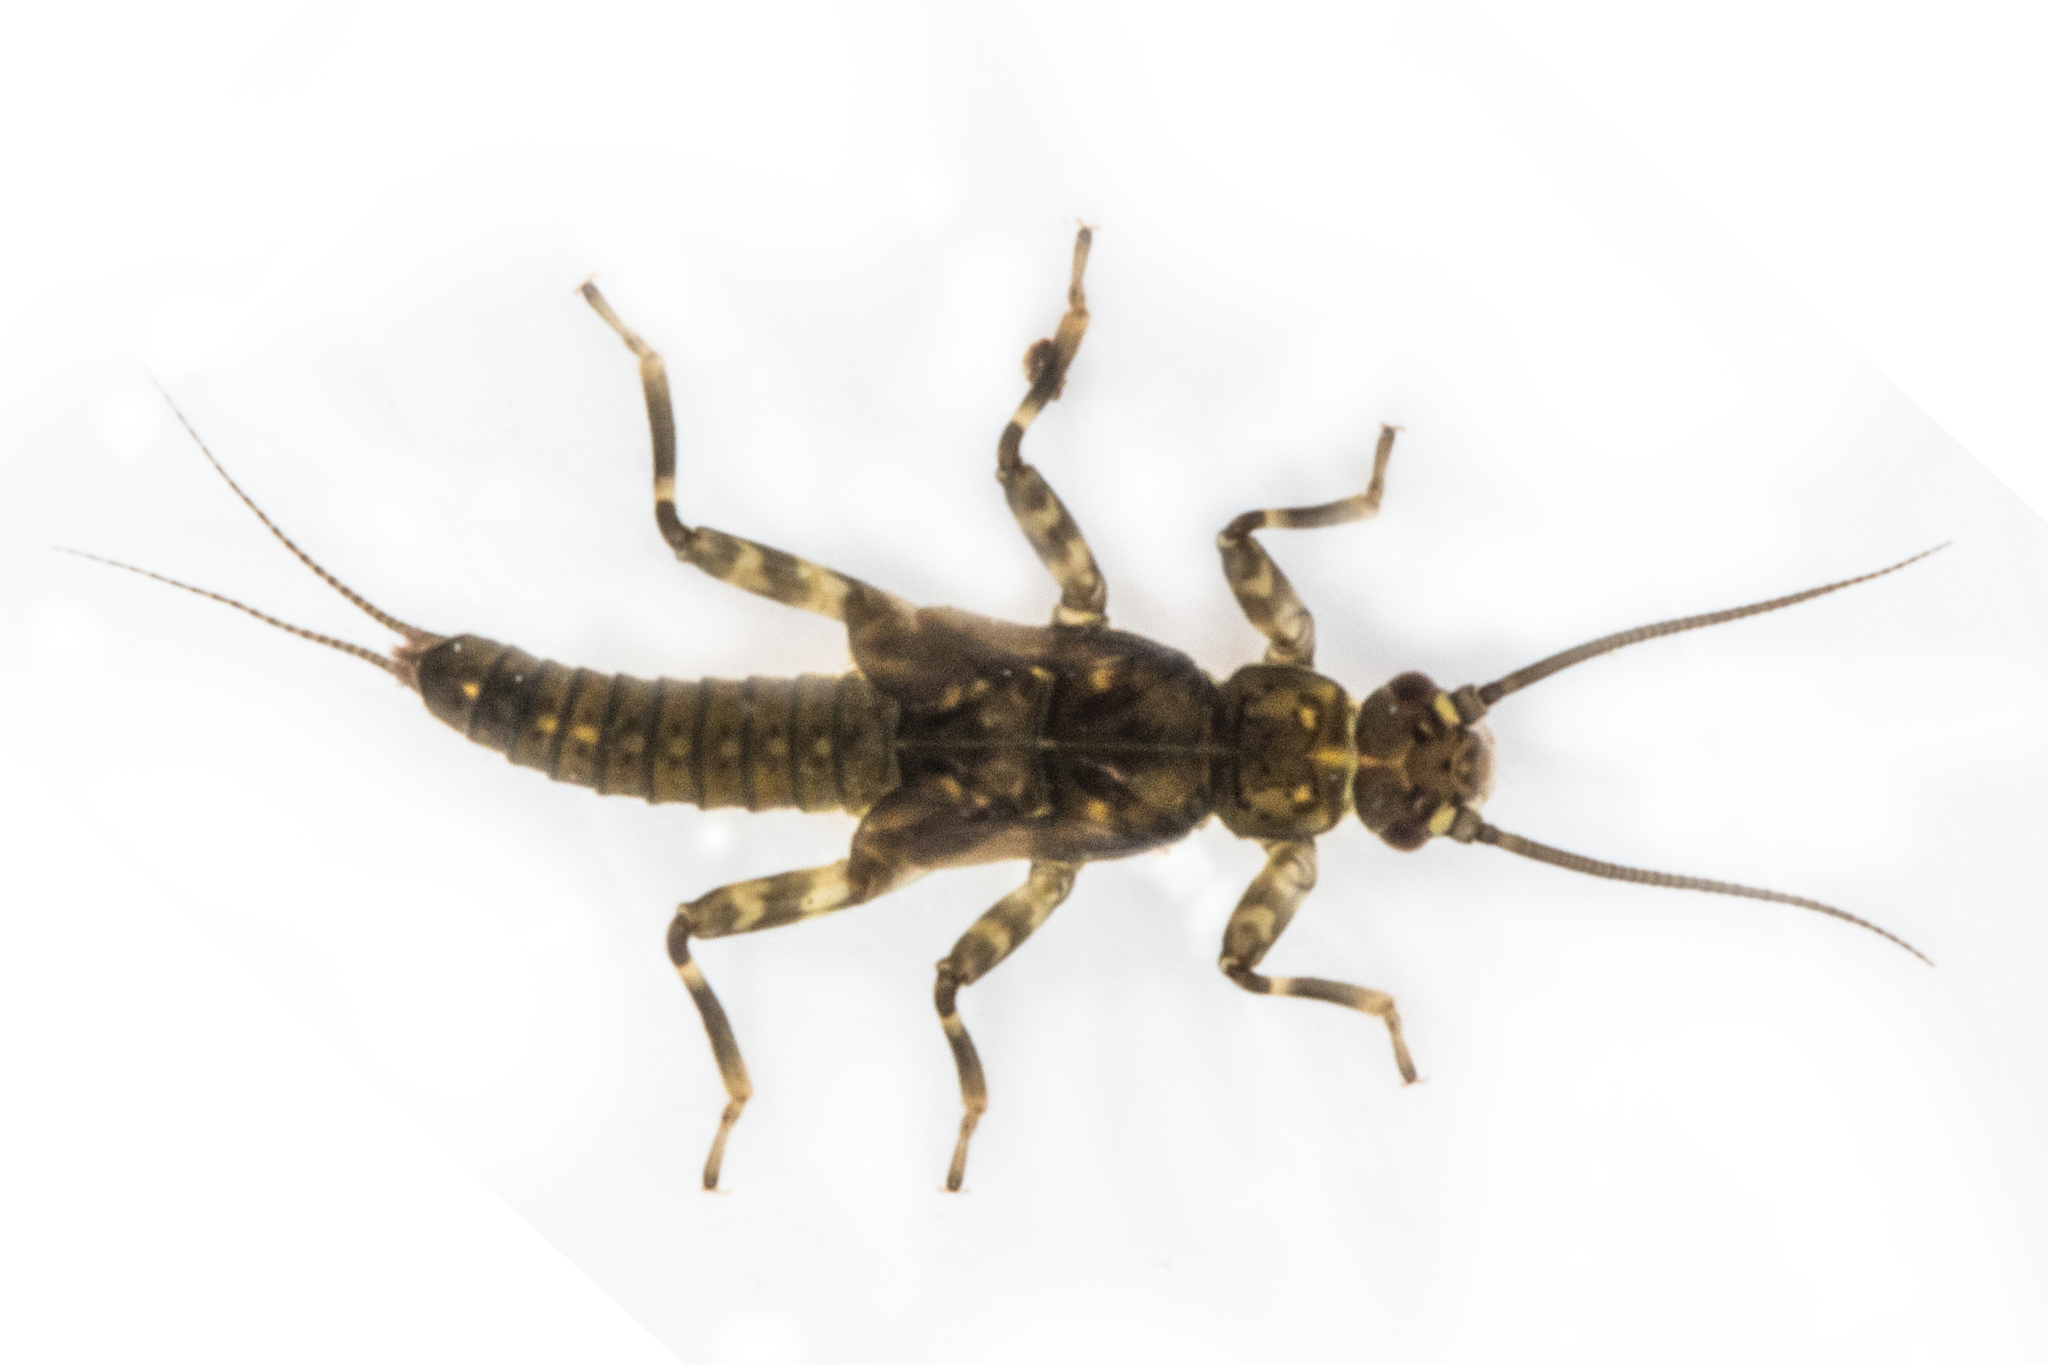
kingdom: Animalia
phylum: Arthropoda
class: Insecta
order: Plecoptera
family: Gripopterygidae
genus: Acroperla
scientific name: Acroperla trivacuata
